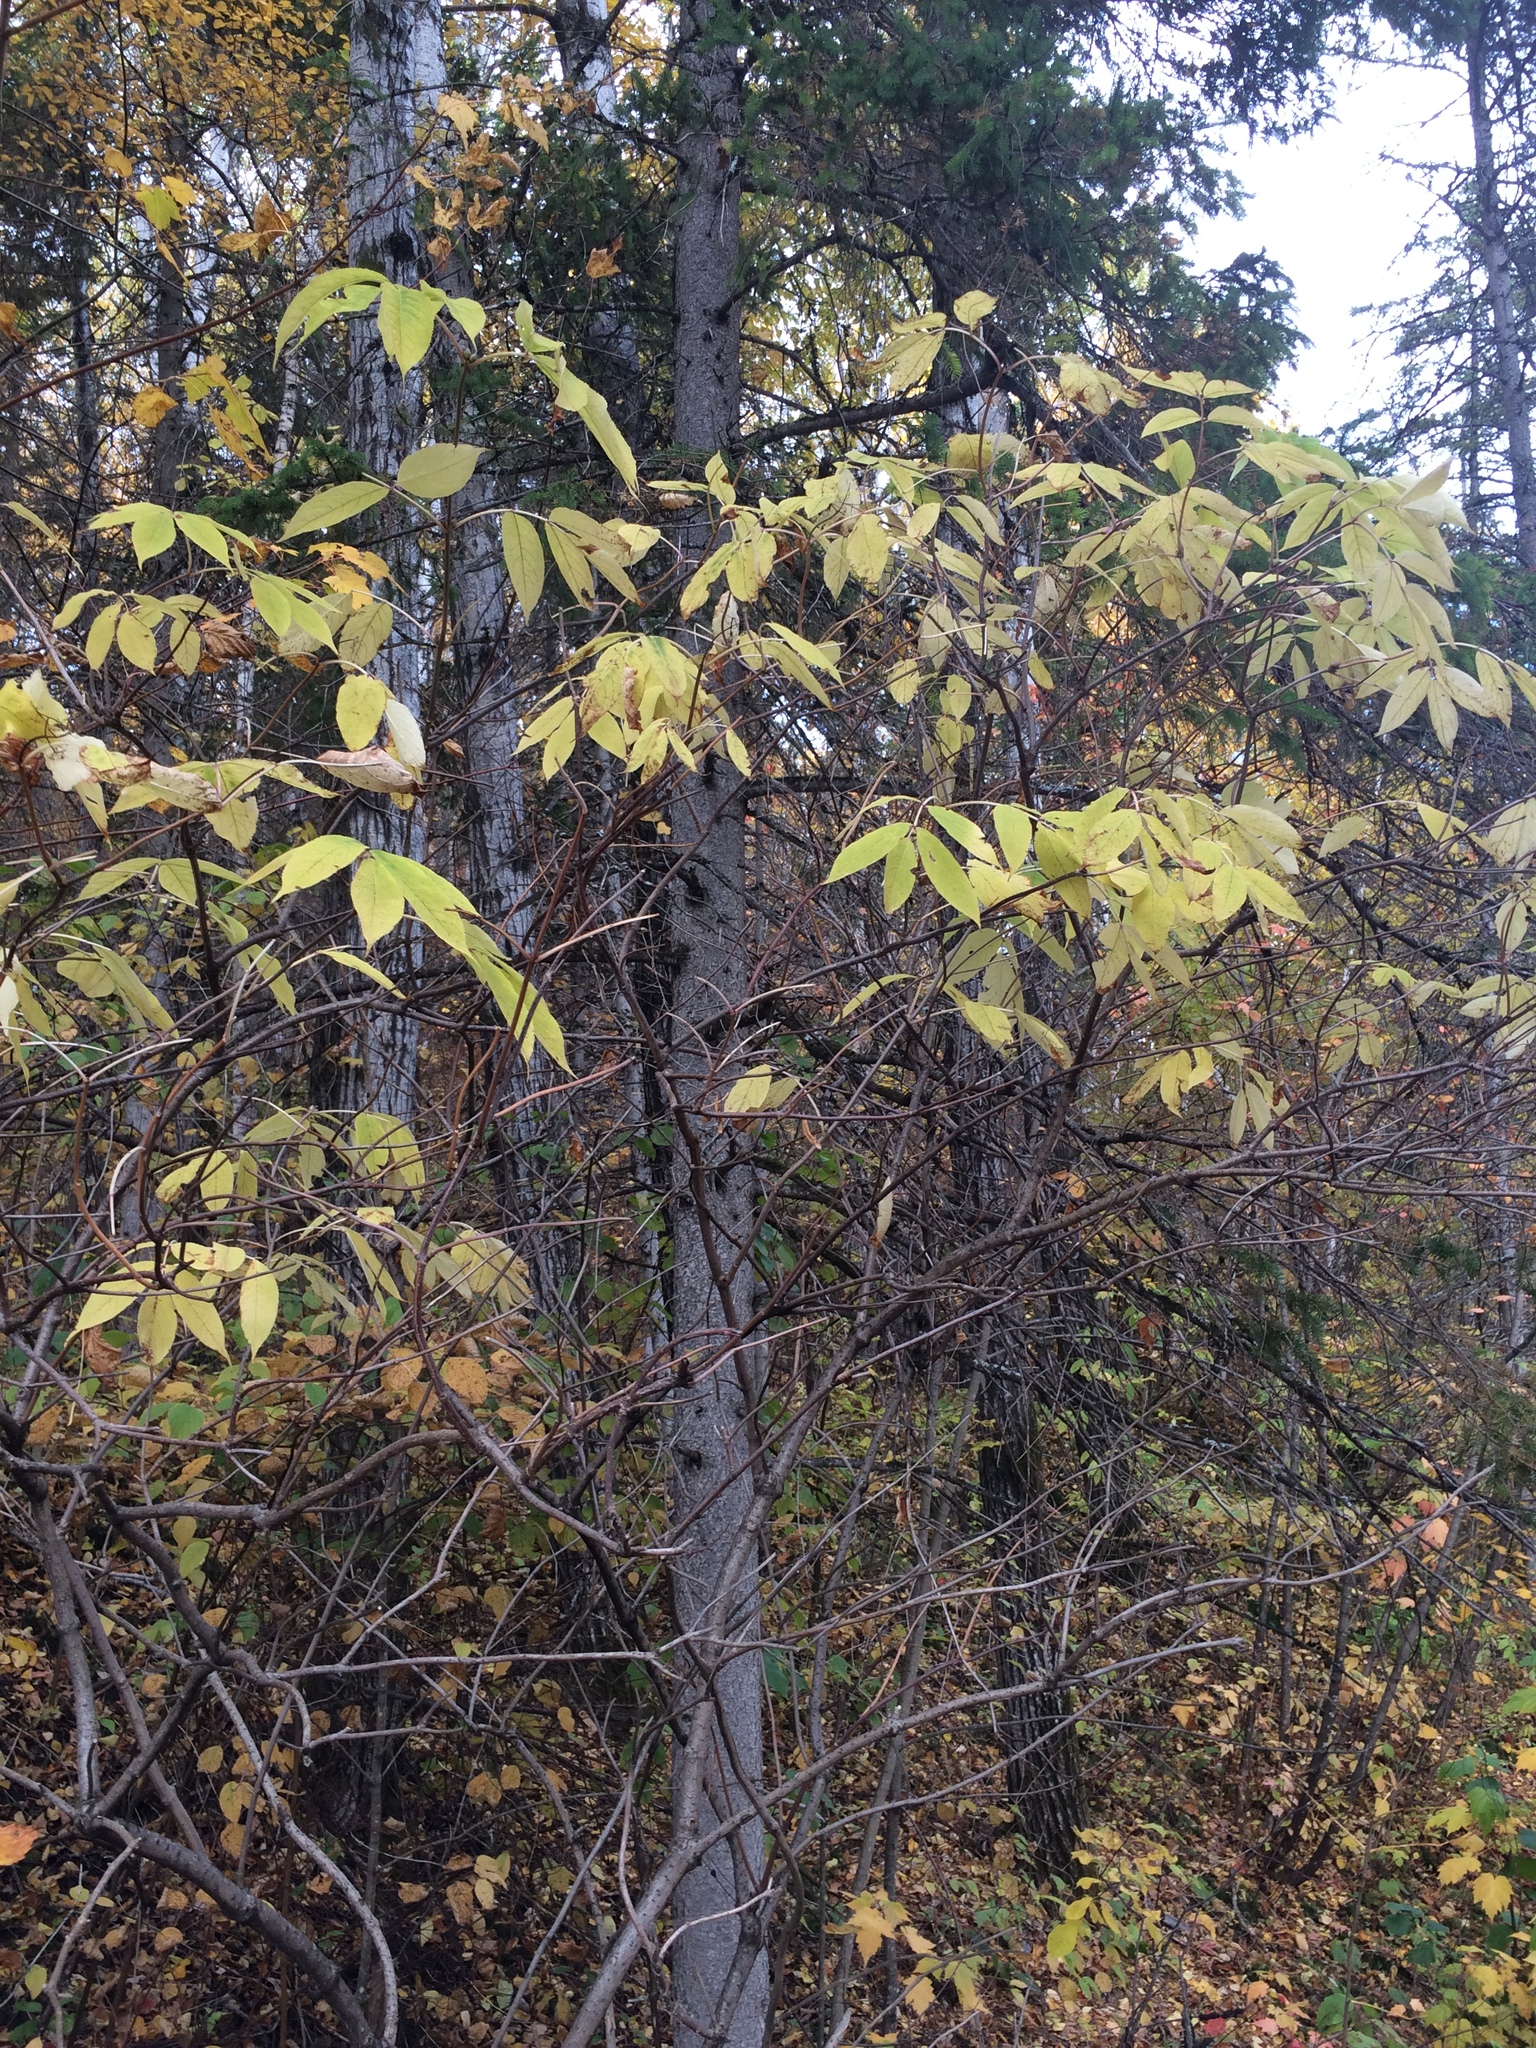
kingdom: Plantae
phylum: Tracheophyta
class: Magnoliopsida
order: Dipsacales
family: Viburnaceae
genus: Sambucus
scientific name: Sambucus racemosa
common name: Red-berried elder
